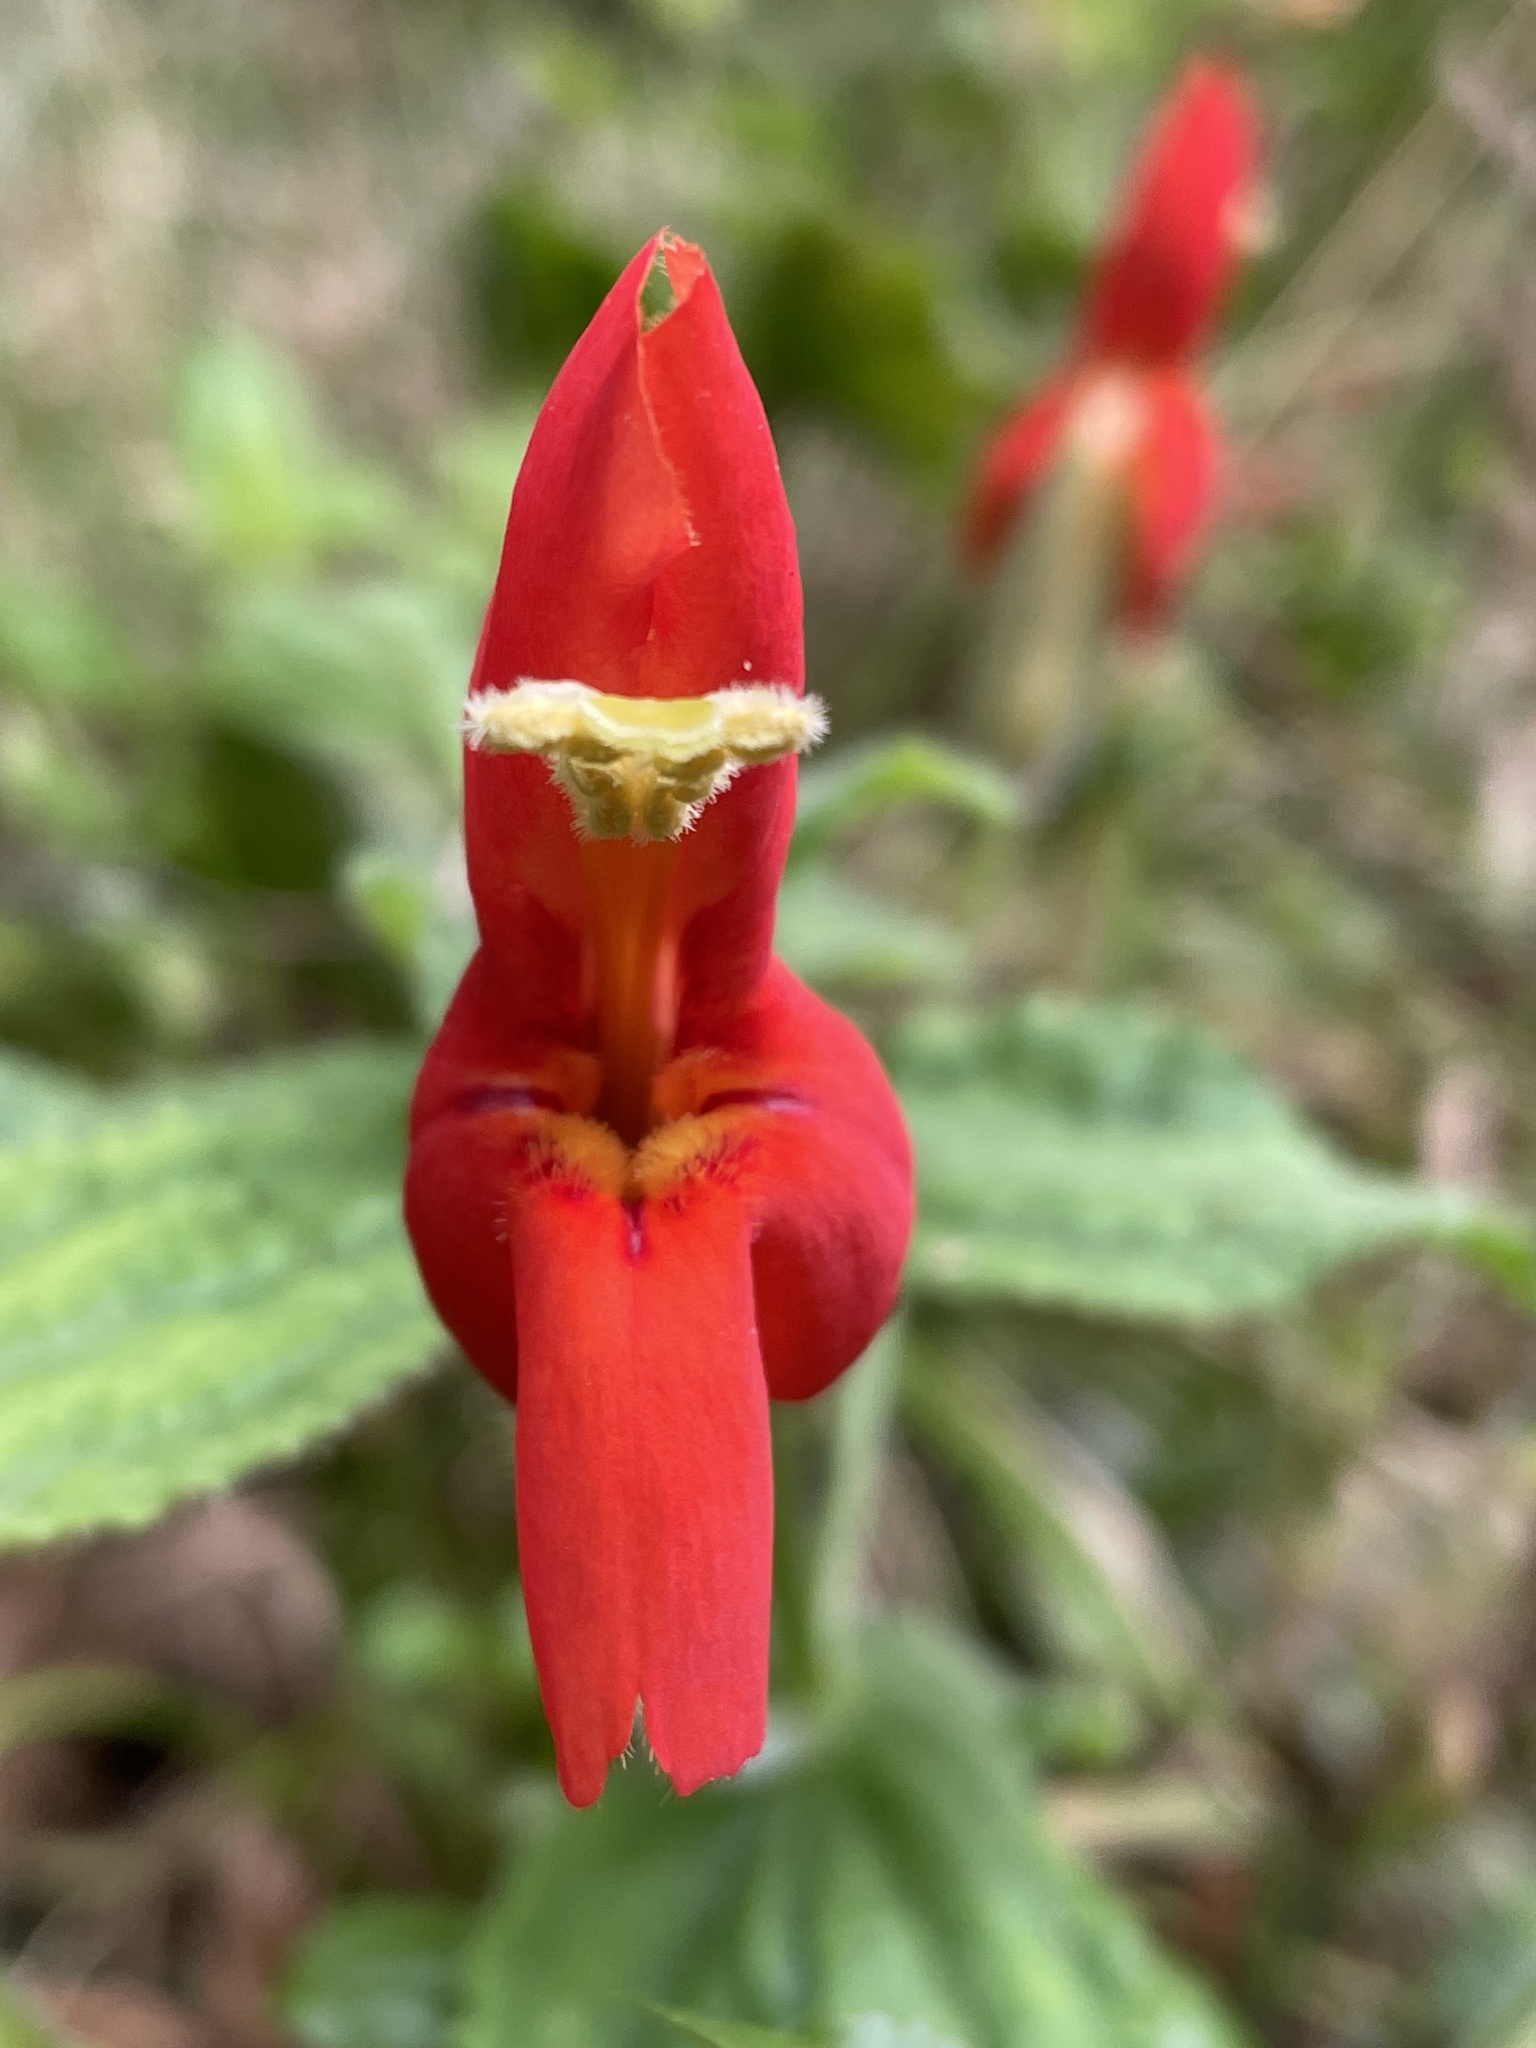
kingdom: Plantae
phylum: Tracheophyta
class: Magnoliopsida
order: Lamiales
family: Phrymaceae
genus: Erythranthe
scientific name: Erythranthe cardinalis
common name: Scarlet monkey-flower
